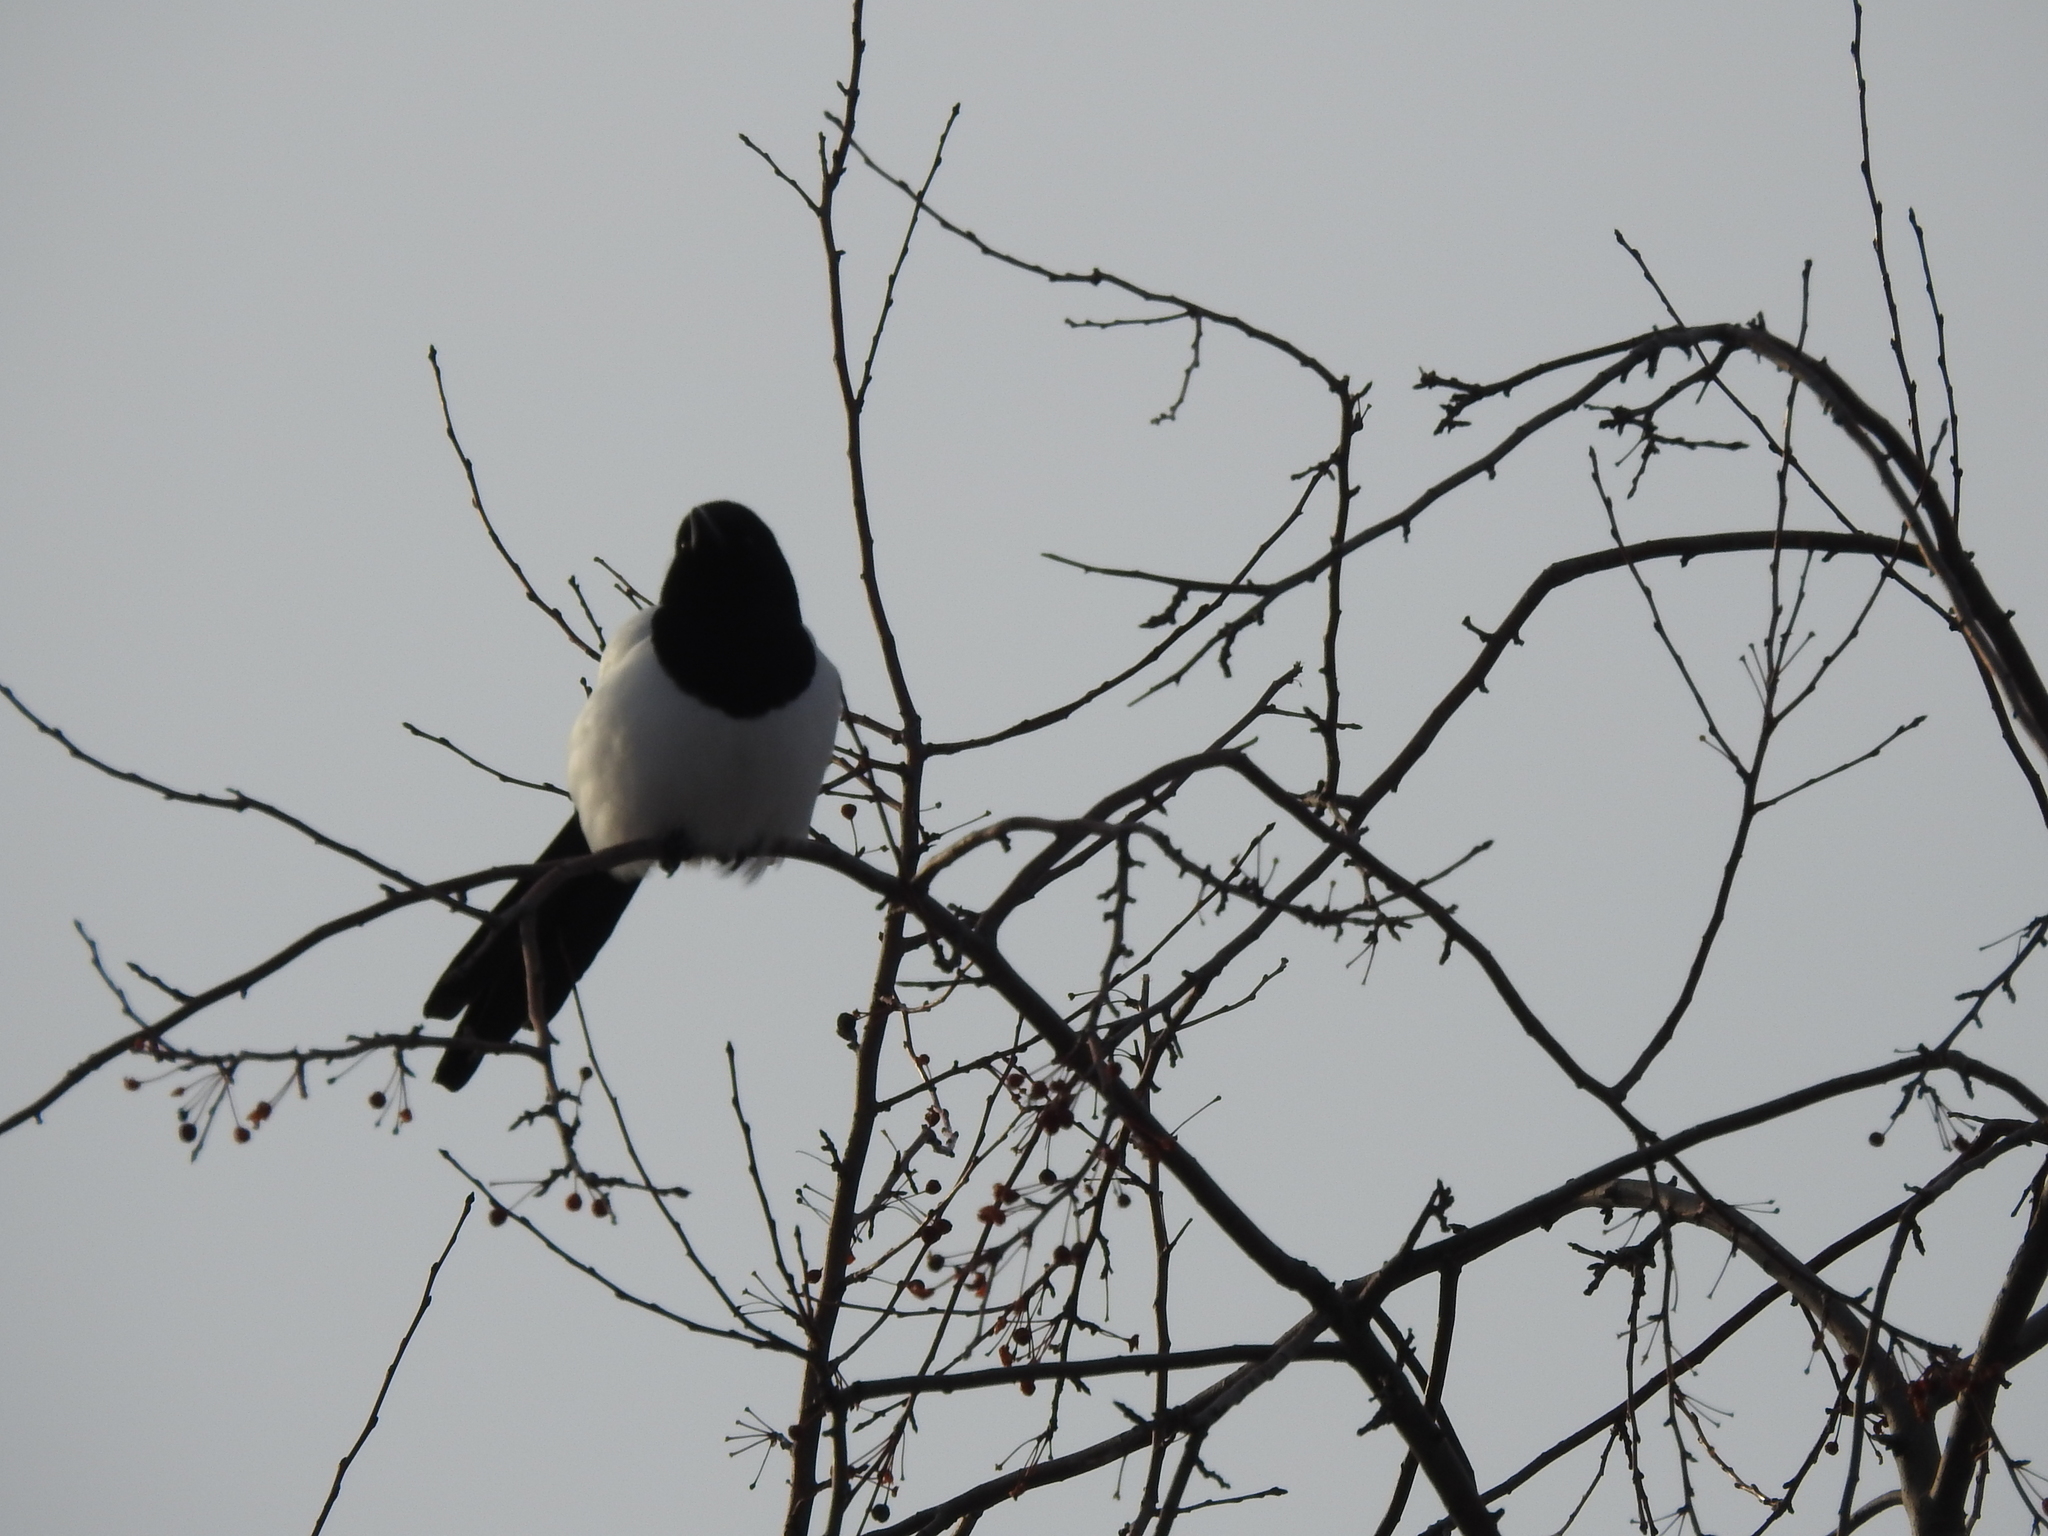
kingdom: Animalia
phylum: Chordata
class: Aves
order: Passeriformes
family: Corvidae
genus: Pica
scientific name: Pica pica
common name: Eurasian magpie
